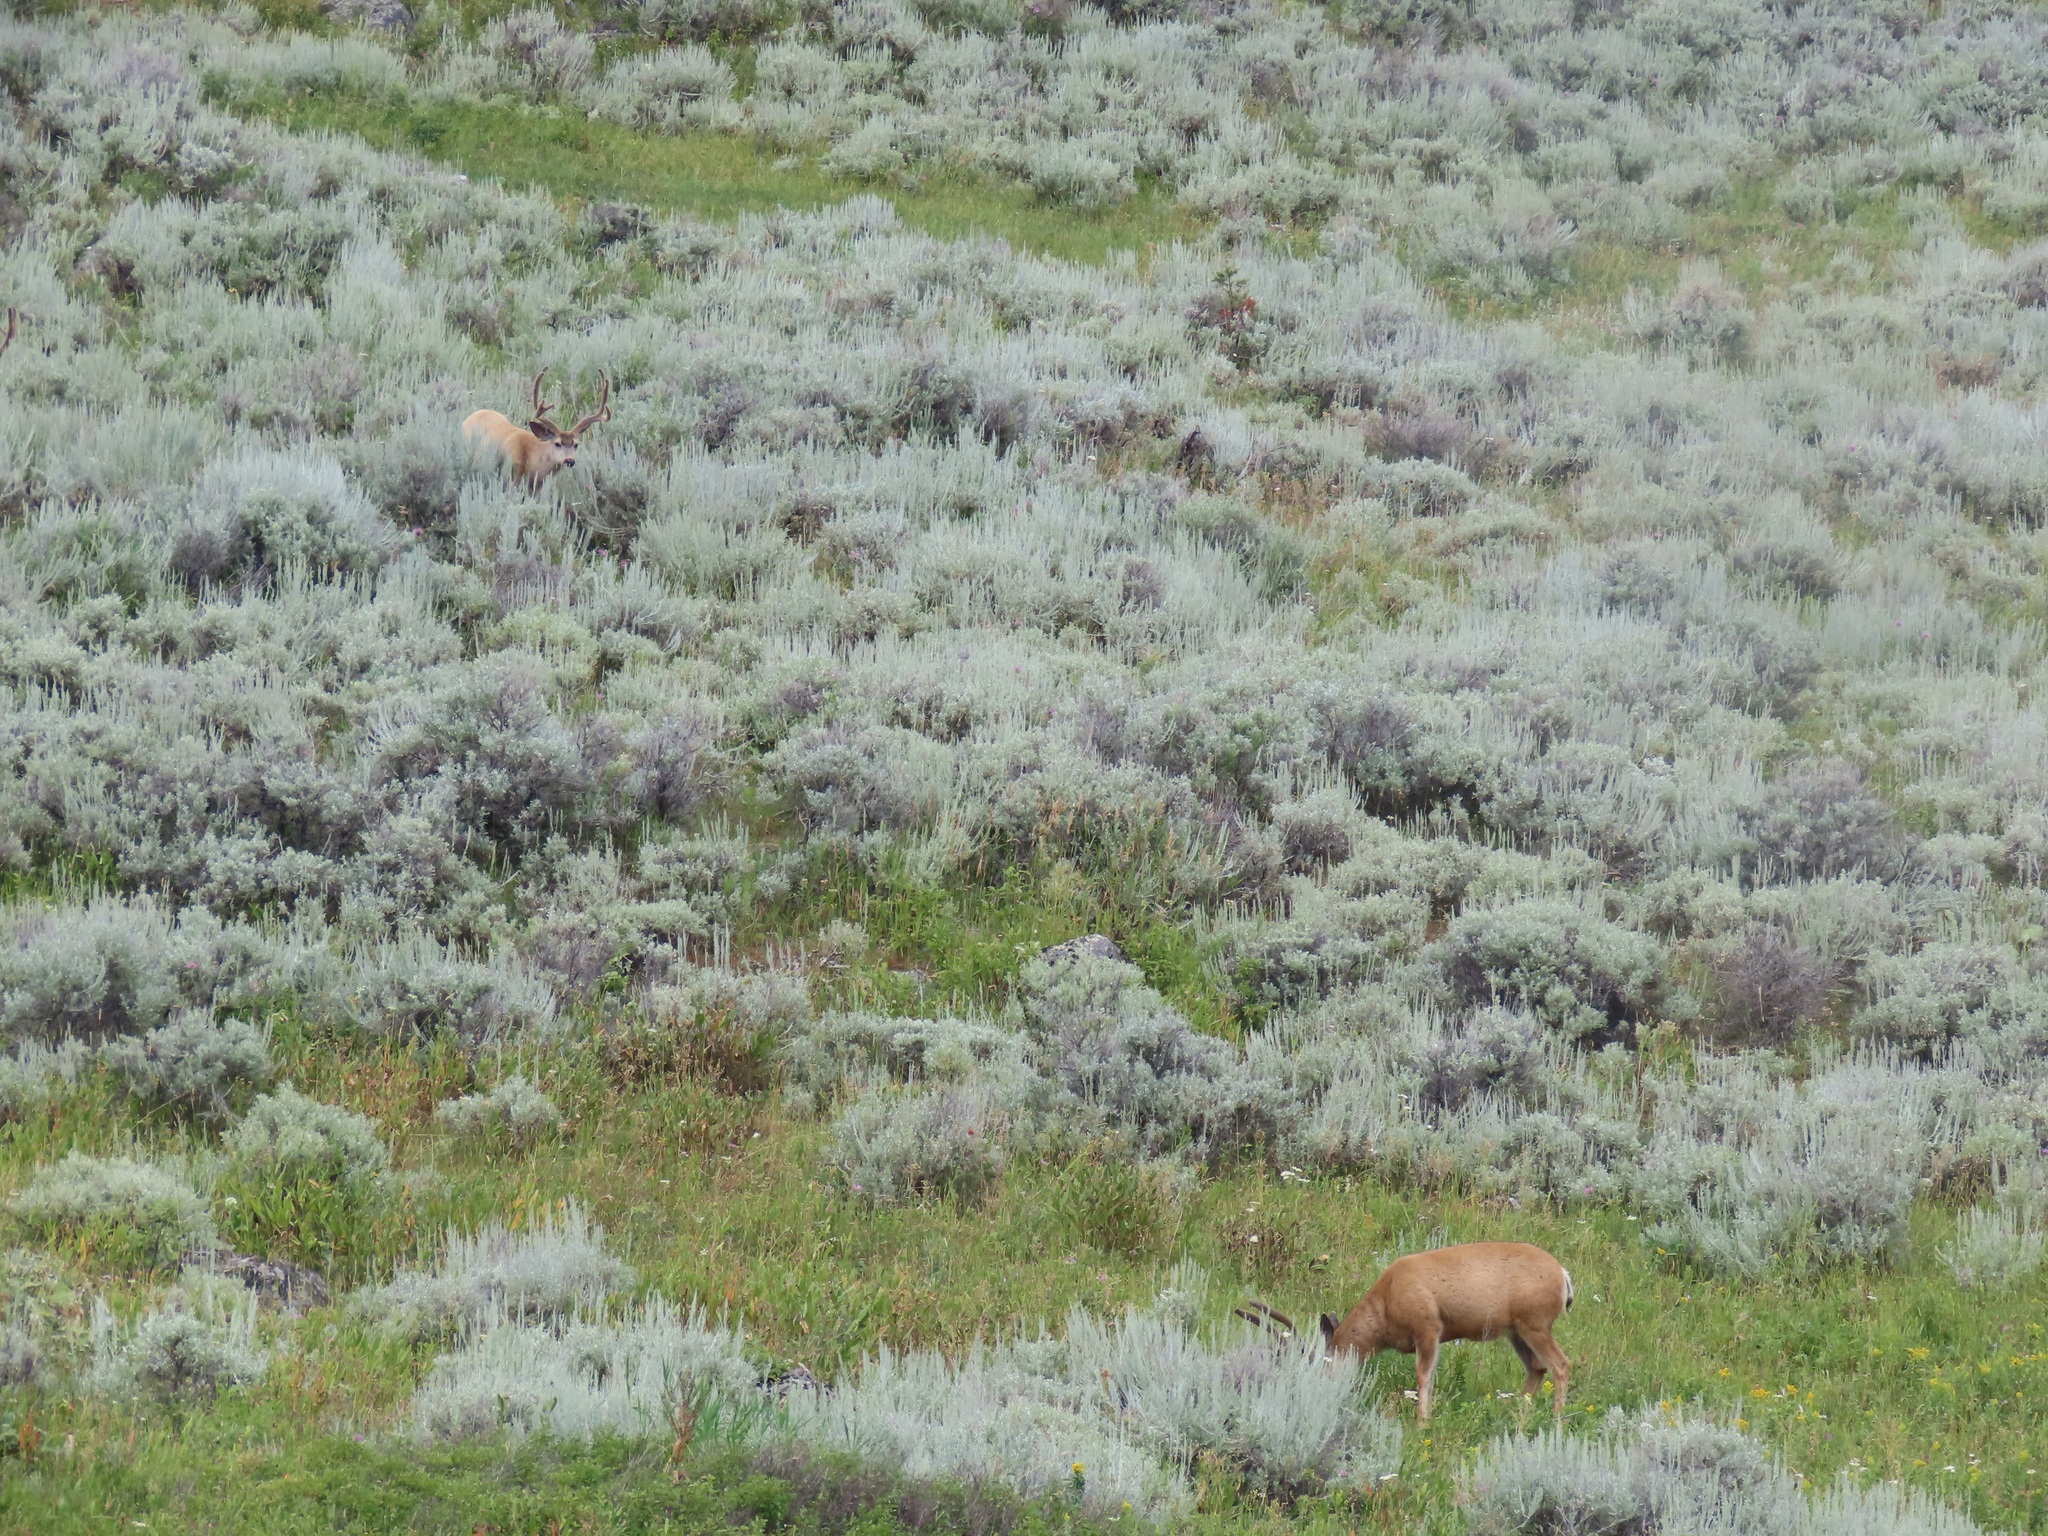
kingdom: Animalia
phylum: Chordata
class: Mammalia
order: Artiodactyla
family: Cervidae
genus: Odocoileus
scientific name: Odocoileus hemionus
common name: Mule deer
